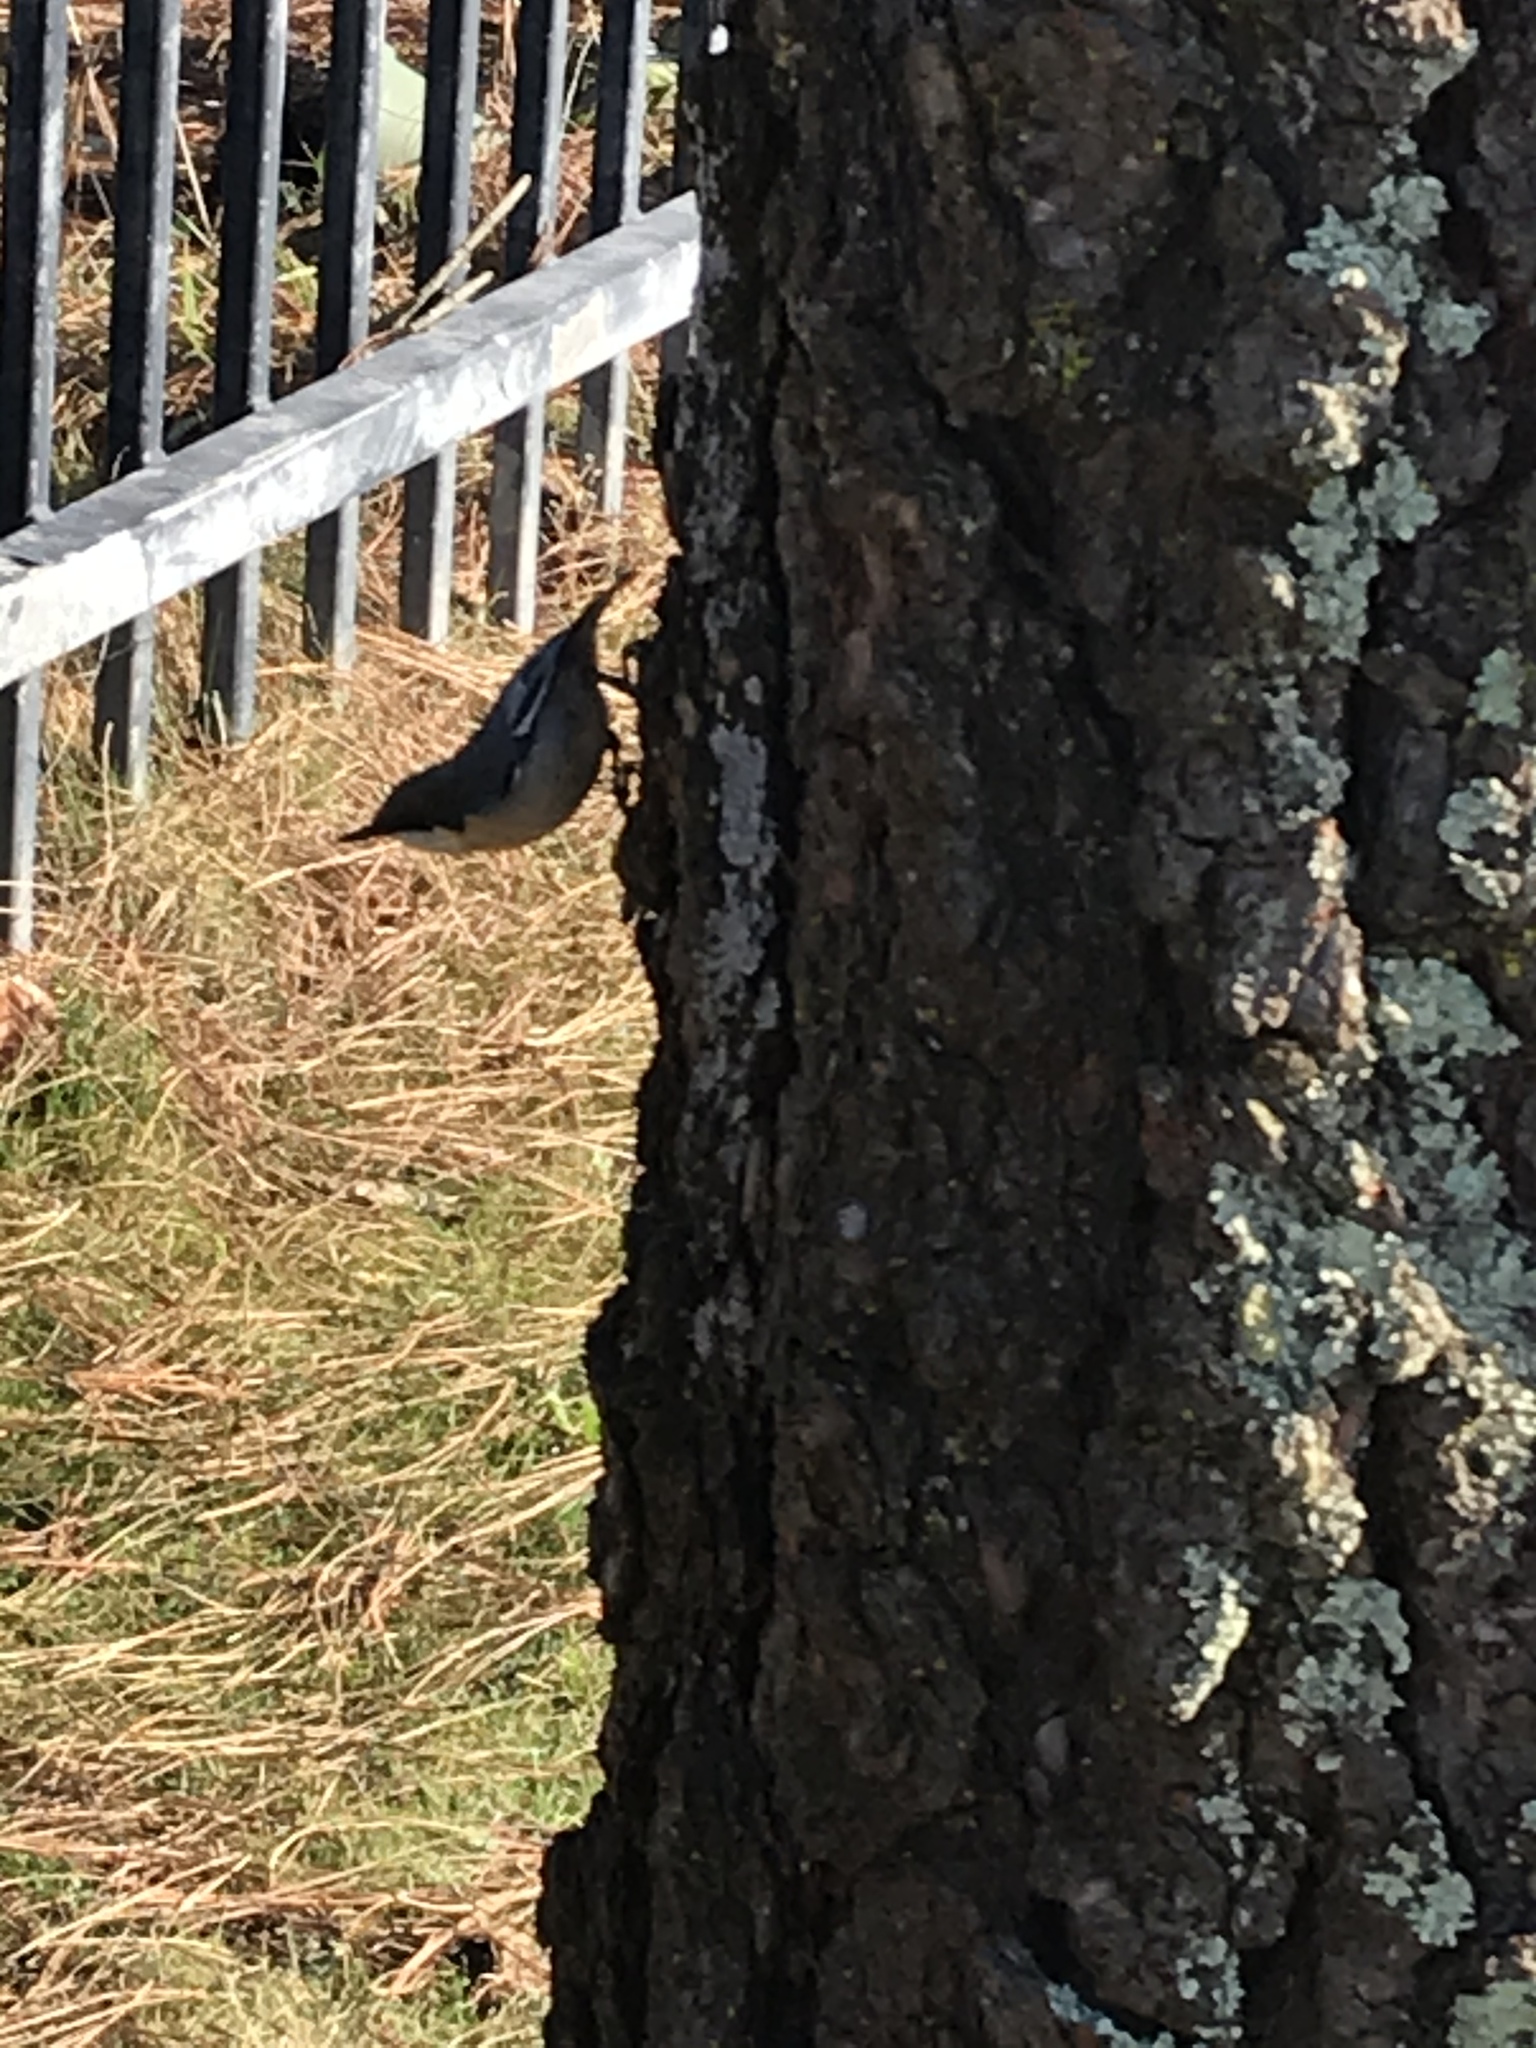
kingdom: Animalia
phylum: Chordata
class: Aves
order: Passeriformes
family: Sittidae
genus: Sitta
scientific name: Sitta pygmaea
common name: Pygmy nuthatch
